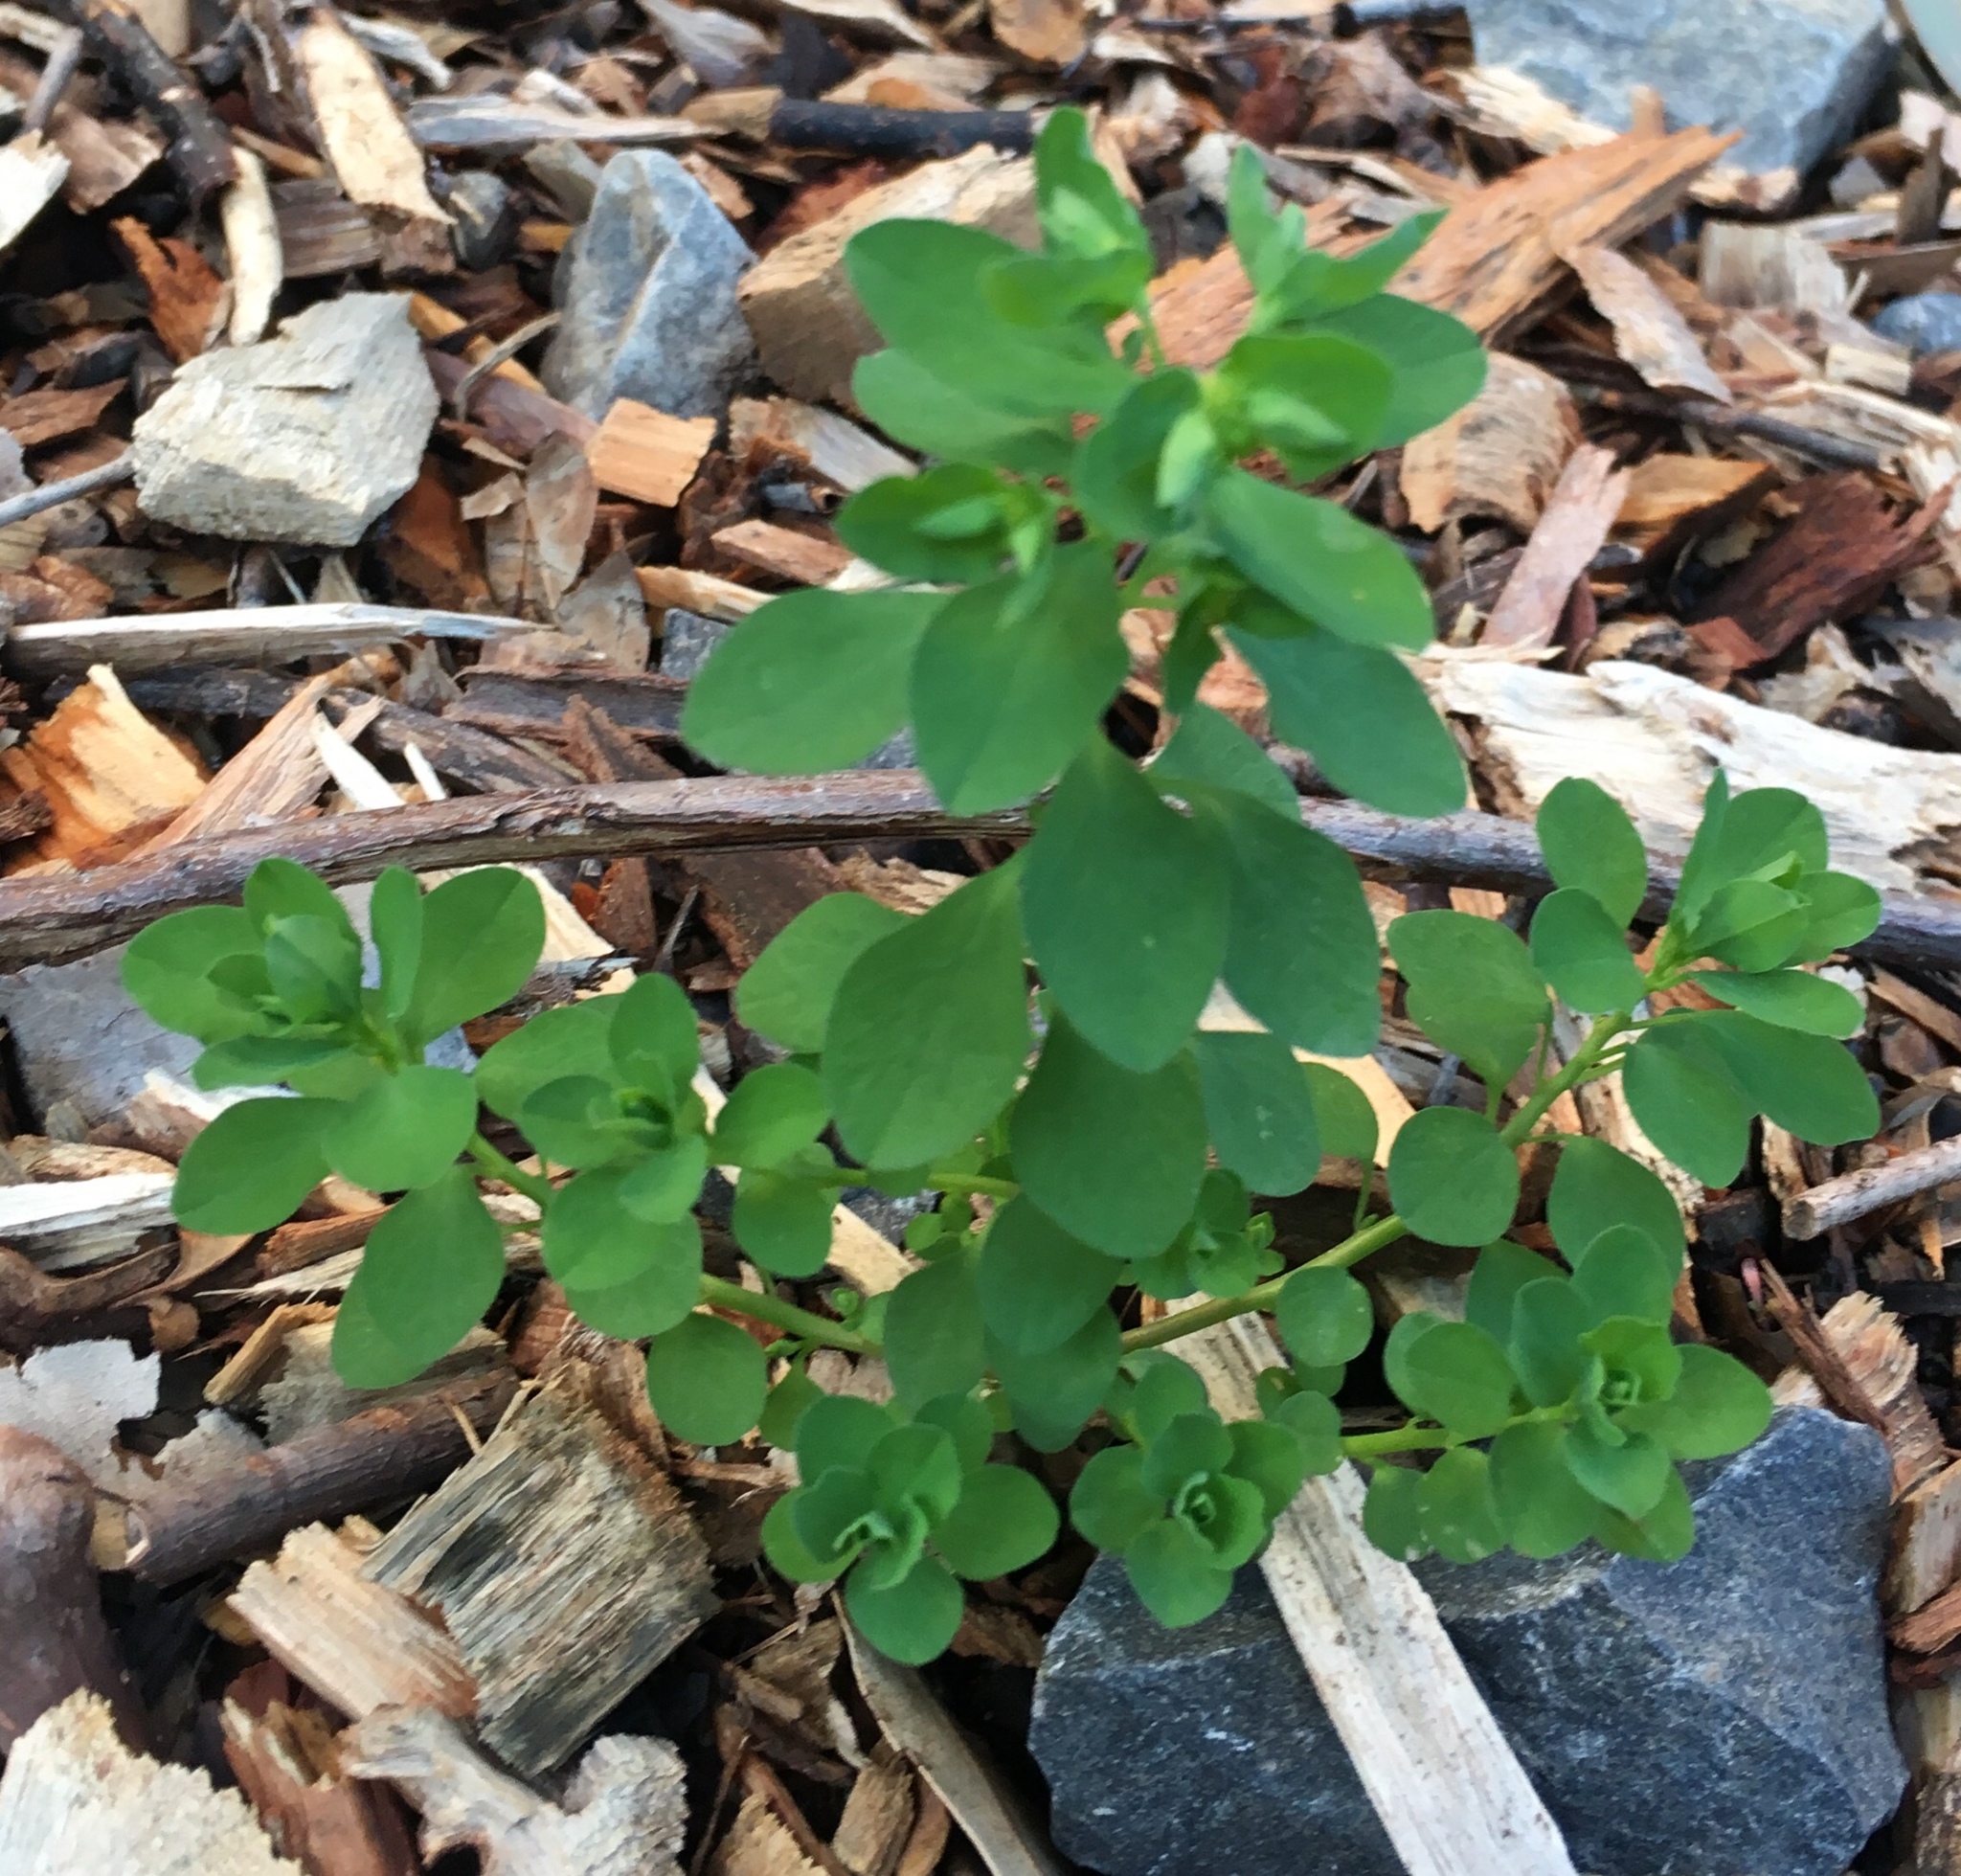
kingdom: Plantae
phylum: Tracheophyta
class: Magnoliopsida
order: Malpighiales
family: Euphorbiaceae
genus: Euphorbia
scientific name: Euphorbia peplus
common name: Petty spurge
